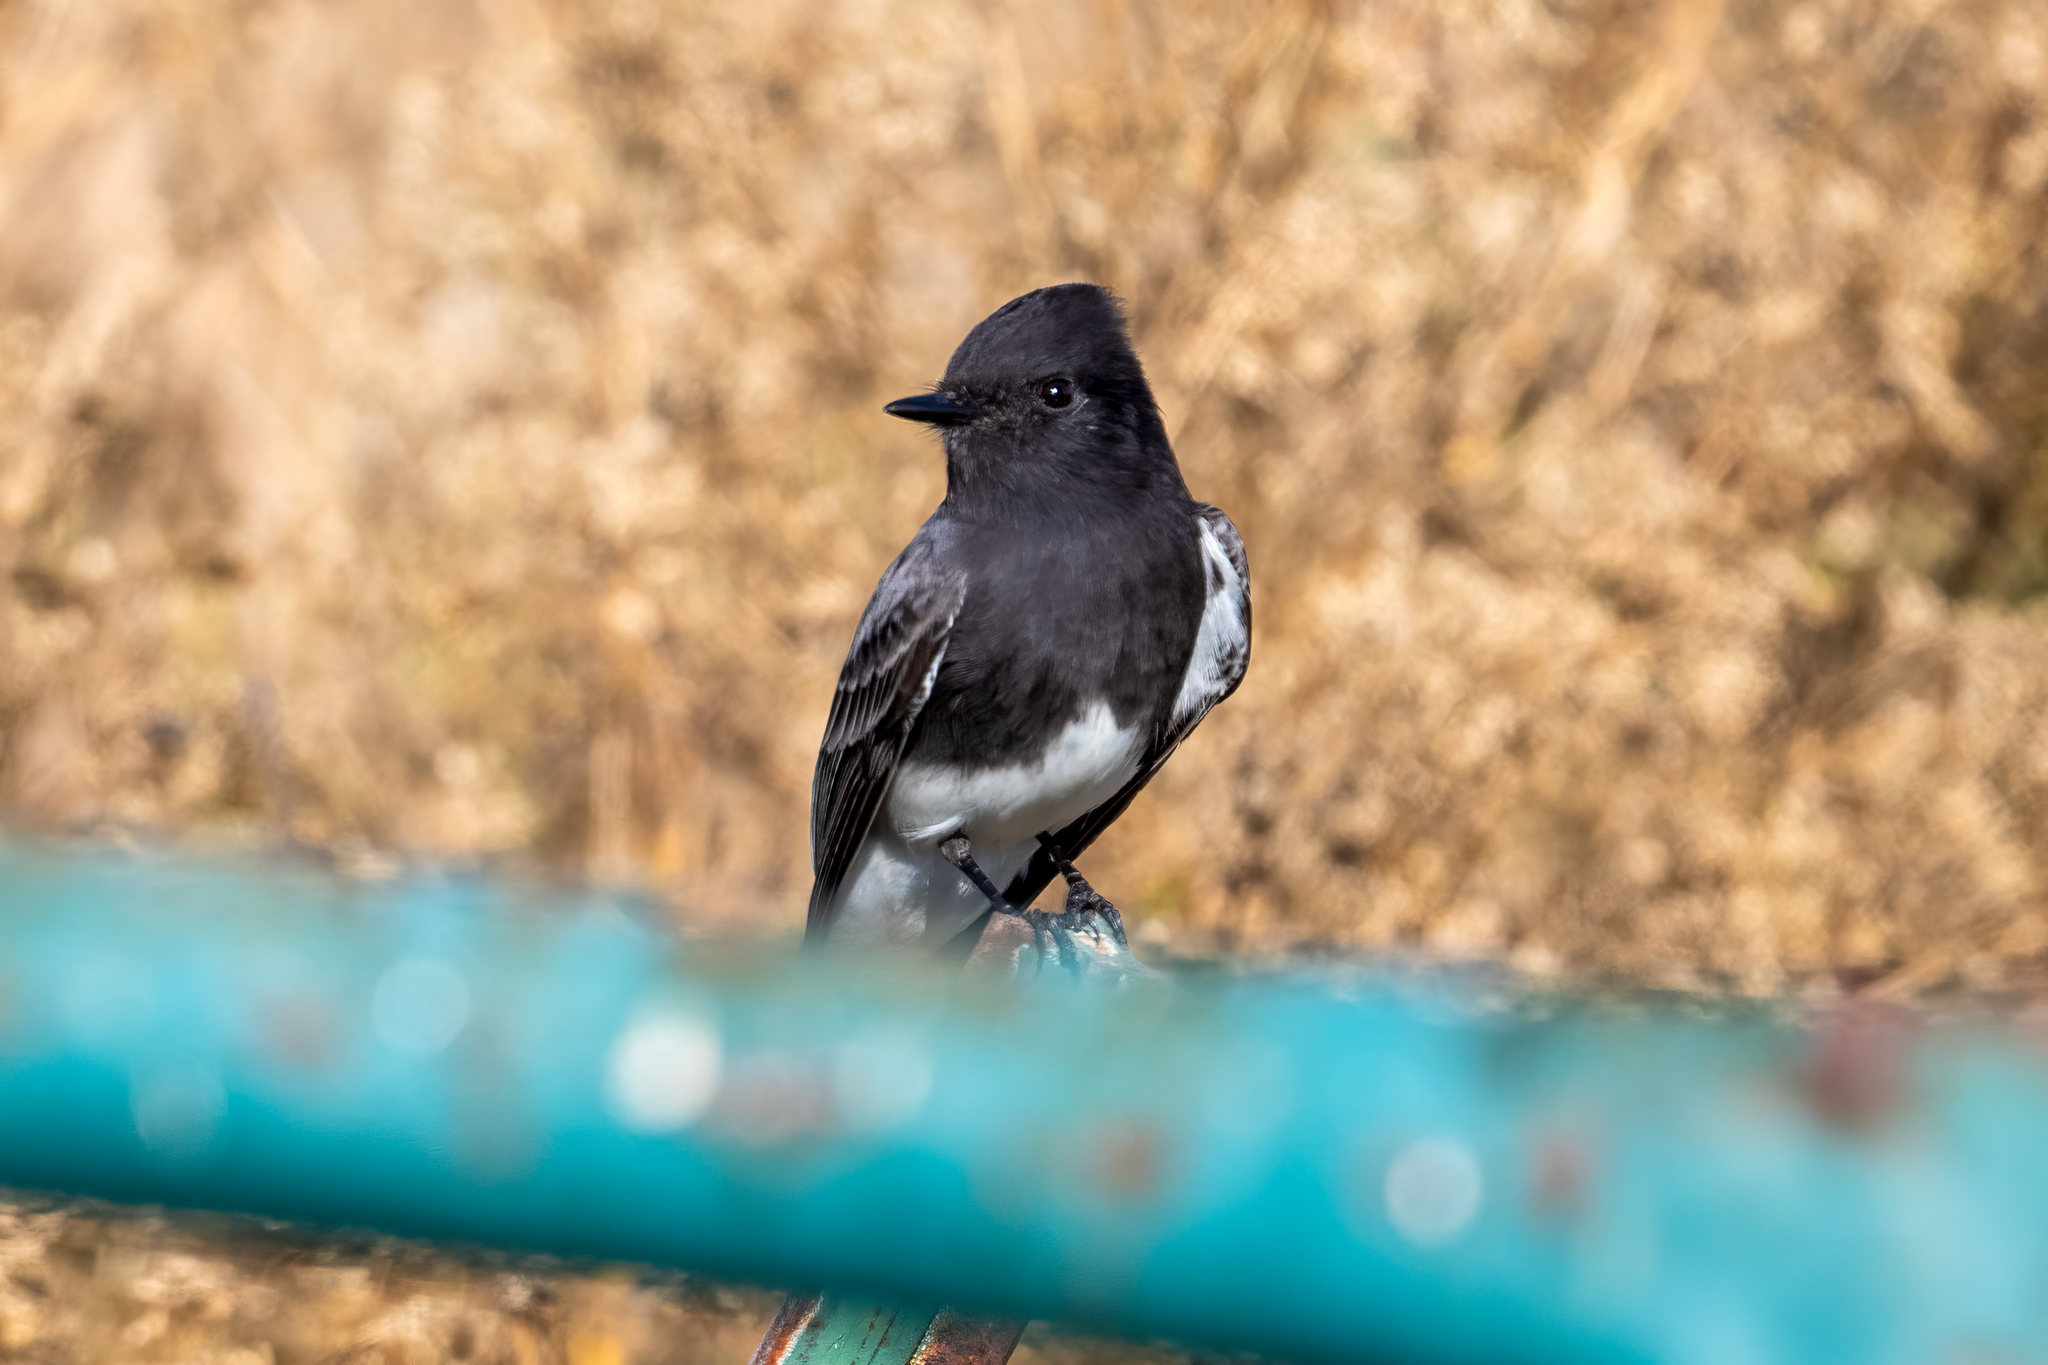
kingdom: Animalia
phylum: Chordata
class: Aves
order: Passeriformes
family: Tyrannidae
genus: Sayornis
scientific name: Sayornis nigricans
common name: Black phoebe
